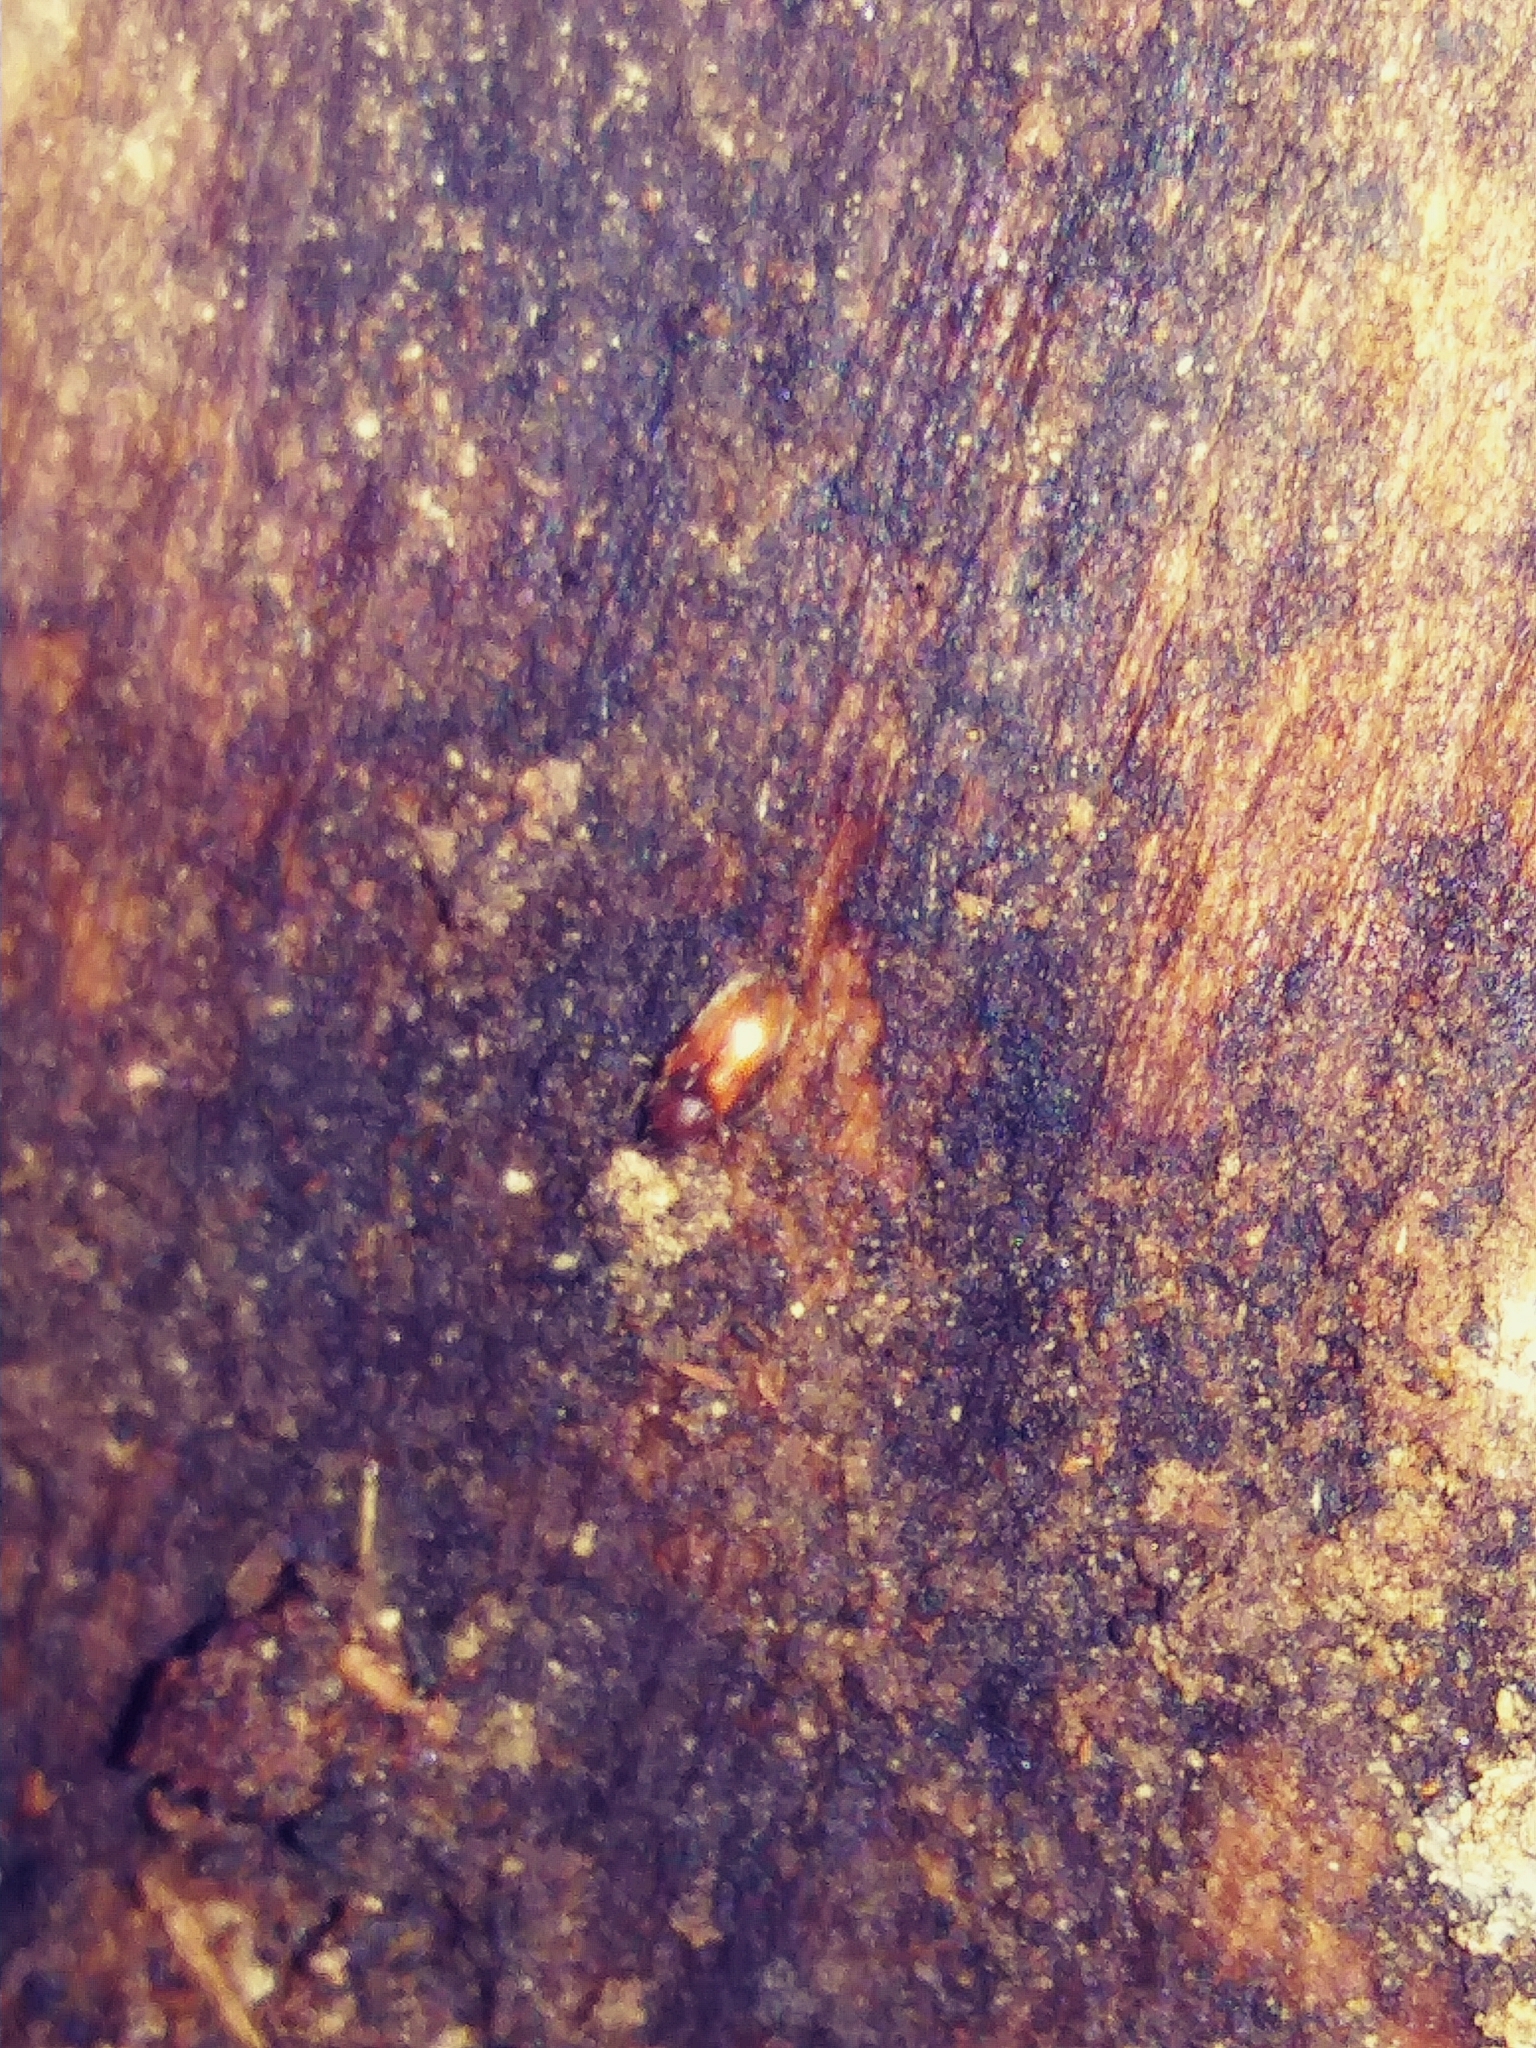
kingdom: Animalia
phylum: Arthropoda
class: Insecta
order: Coleoptera
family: Thanerocleridae
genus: Zenodosus
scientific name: Zenodosus sanguineus
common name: Blood-colored checkered beetle
